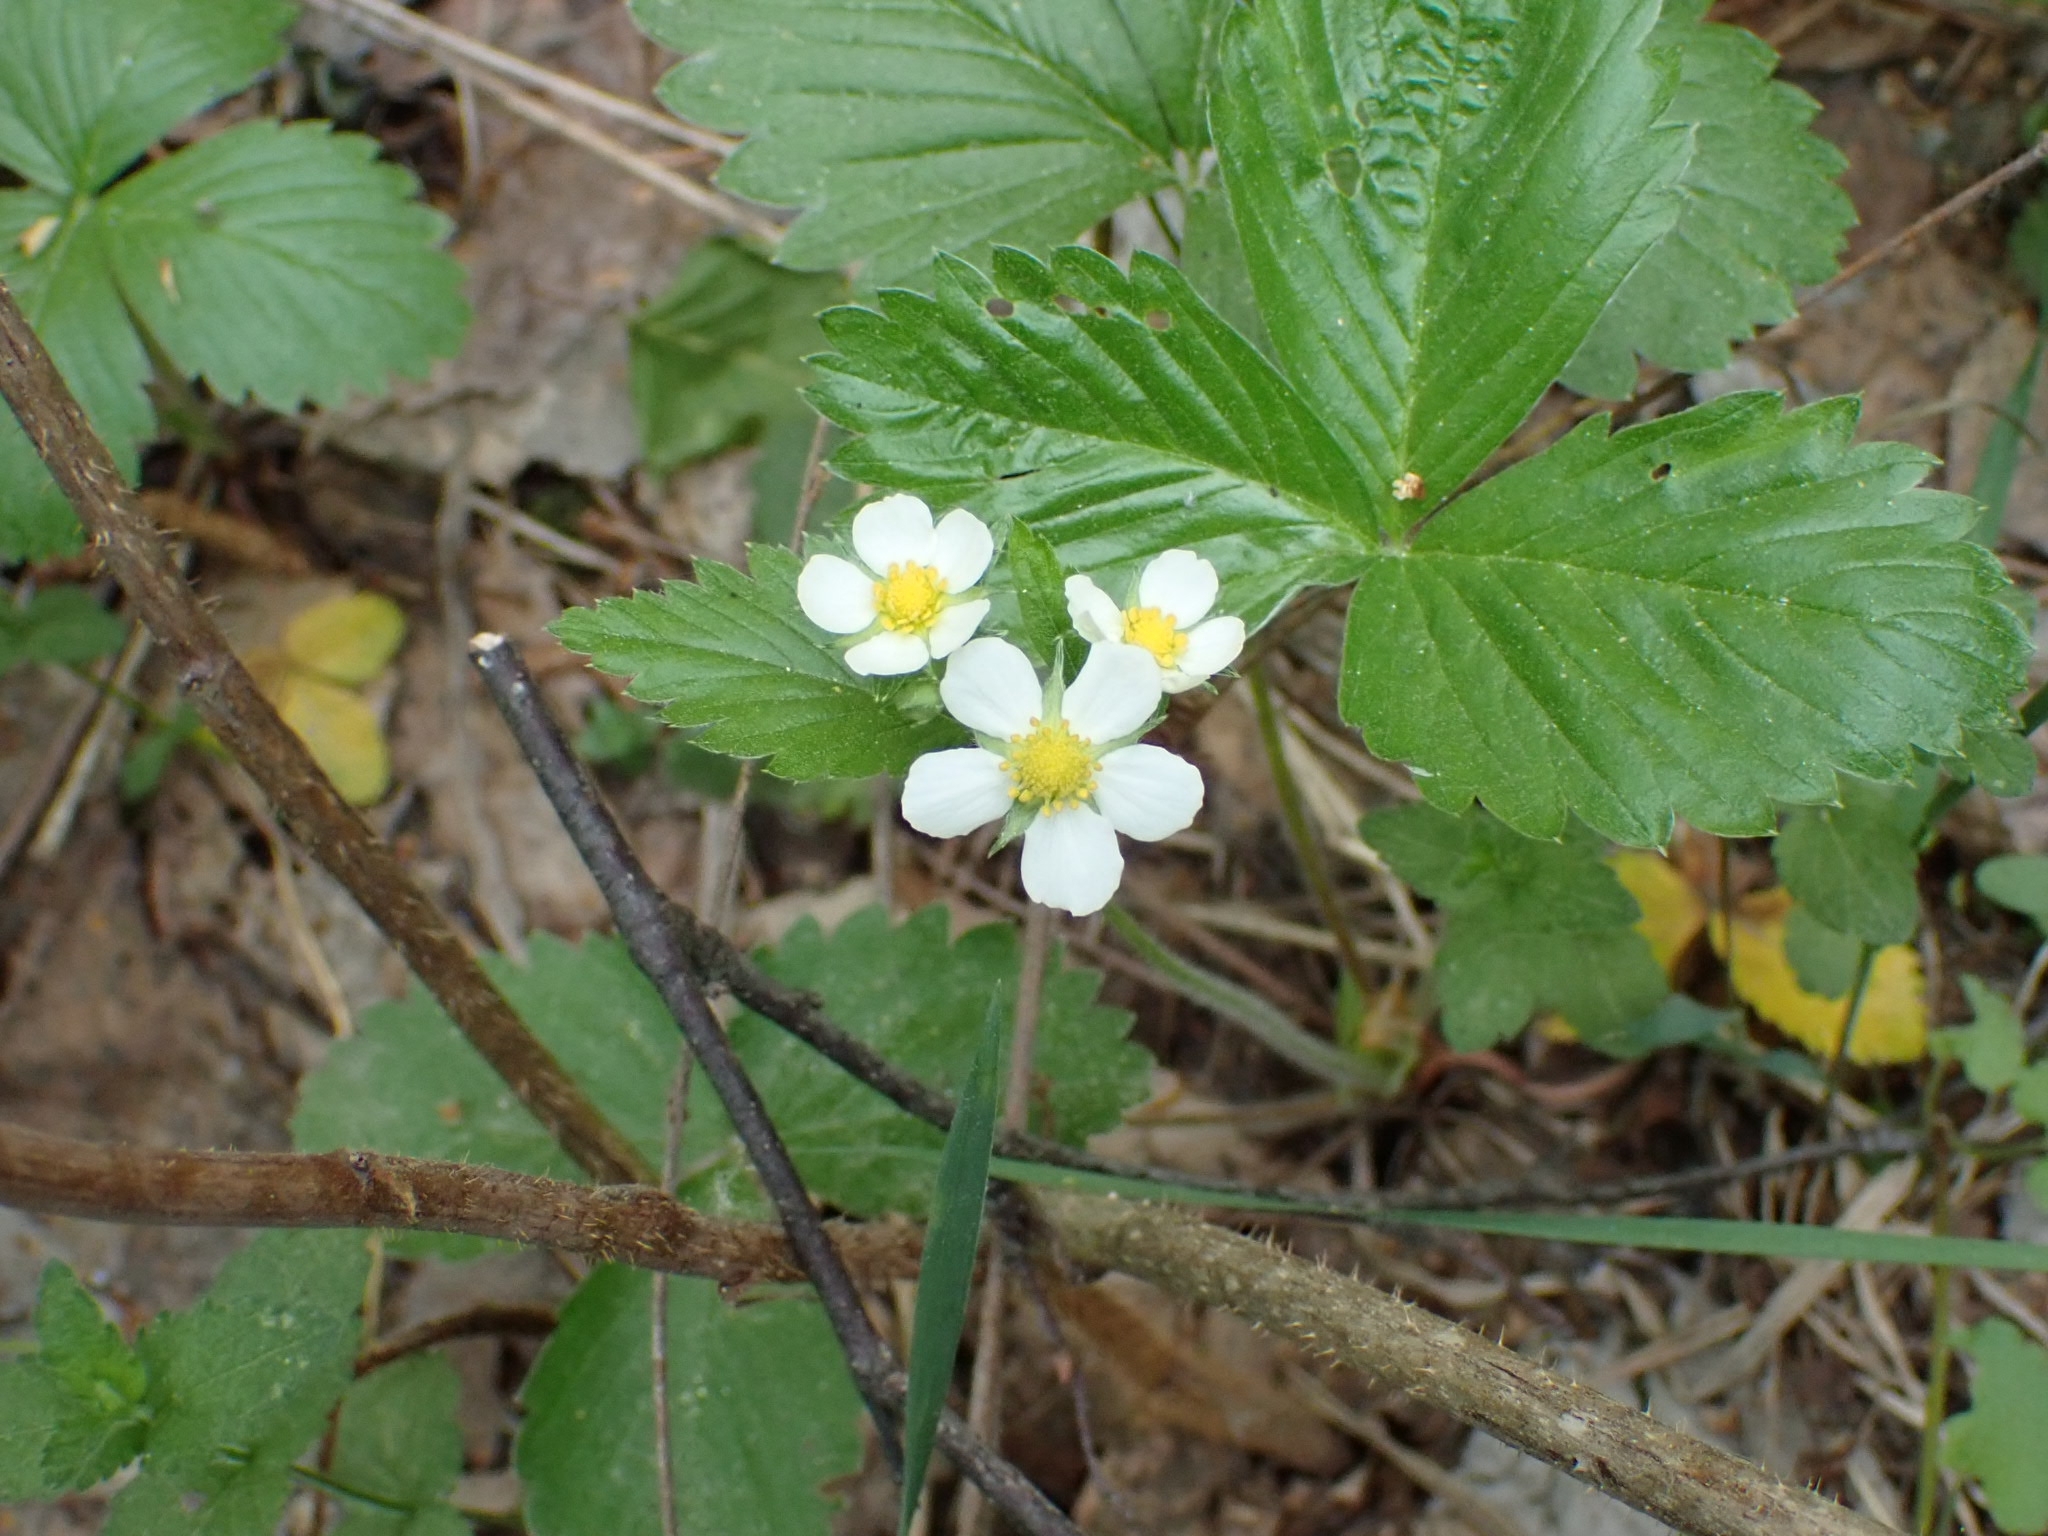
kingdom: Plantae
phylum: Tracheophyta
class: Magnoliopsida
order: Rosales
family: Rosaceae
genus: Fragaria
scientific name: Fragaria vesca
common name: Wild strawberry
